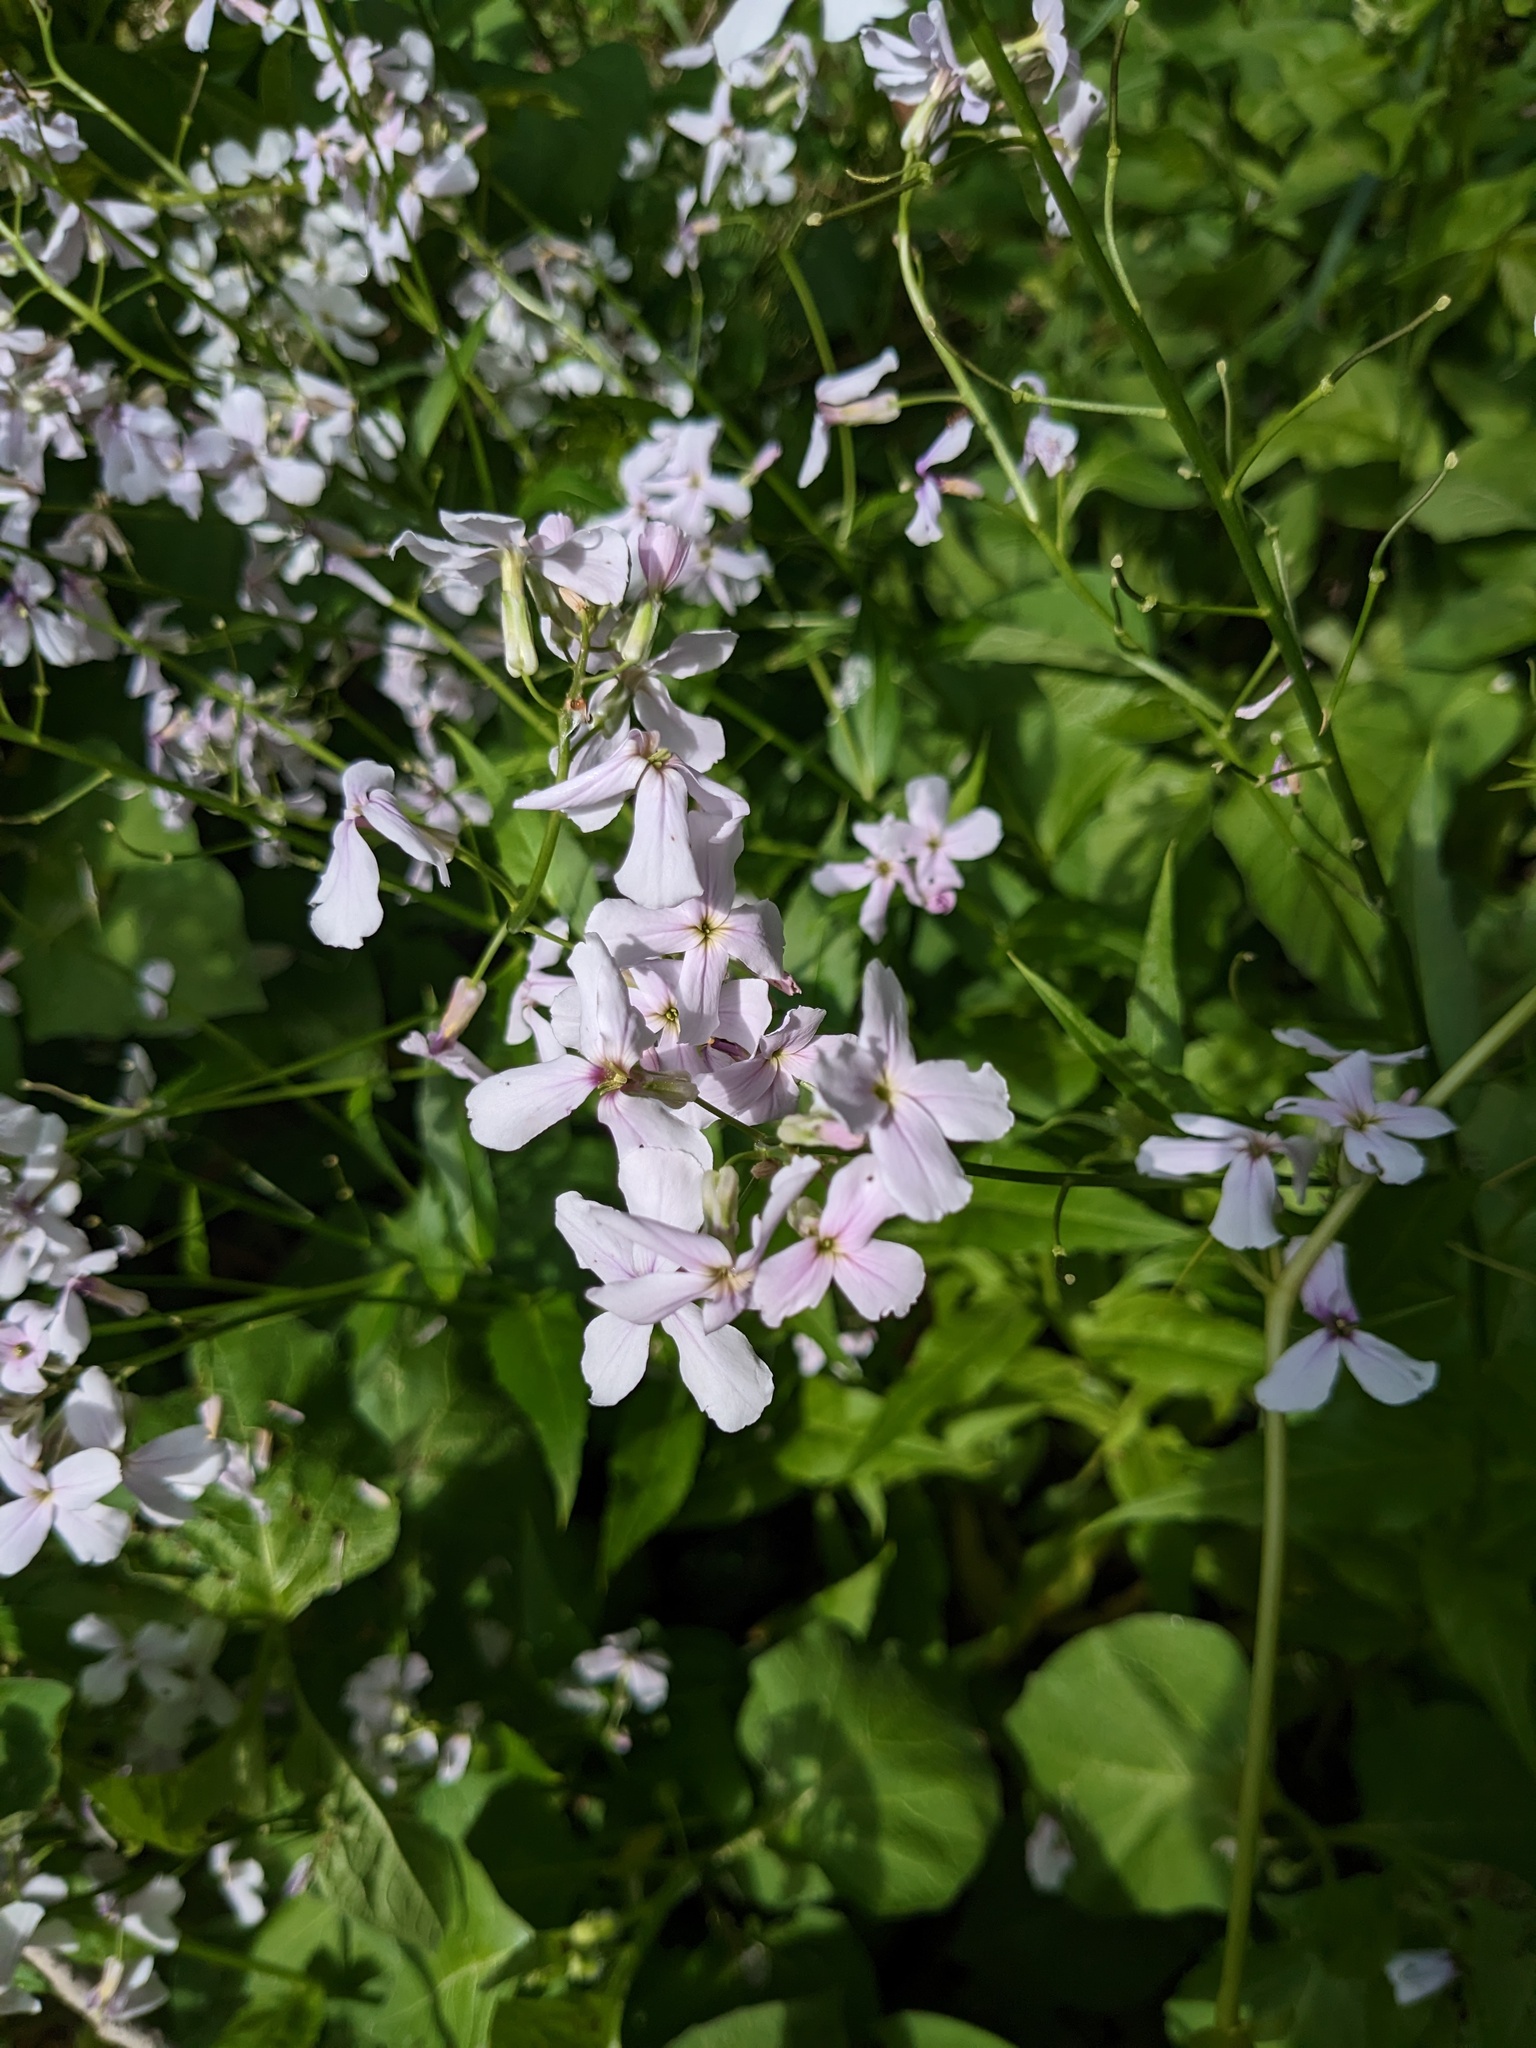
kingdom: Plantae
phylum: Tracheophyta
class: Magnoliopsida
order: Brassicales
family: Brassicaceae
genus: Hesperis
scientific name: Hesperis matronalis
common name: Dame's-violet
